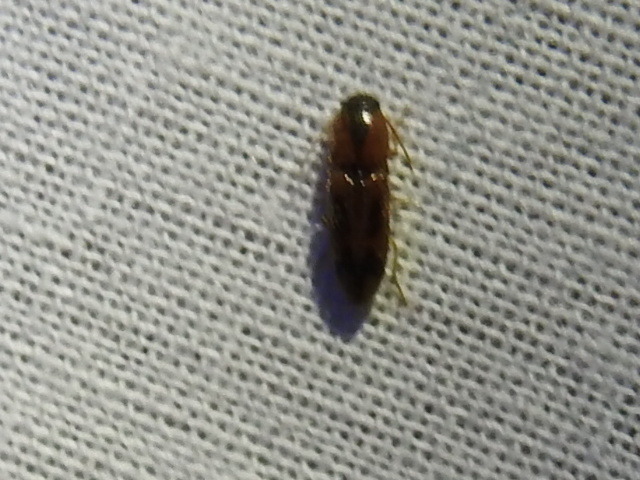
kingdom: Animalia
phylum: Arthropoda
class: Insecta
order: Coleoptera
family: Elateridae
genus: Aeolus
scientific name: Aeolus mellillus
